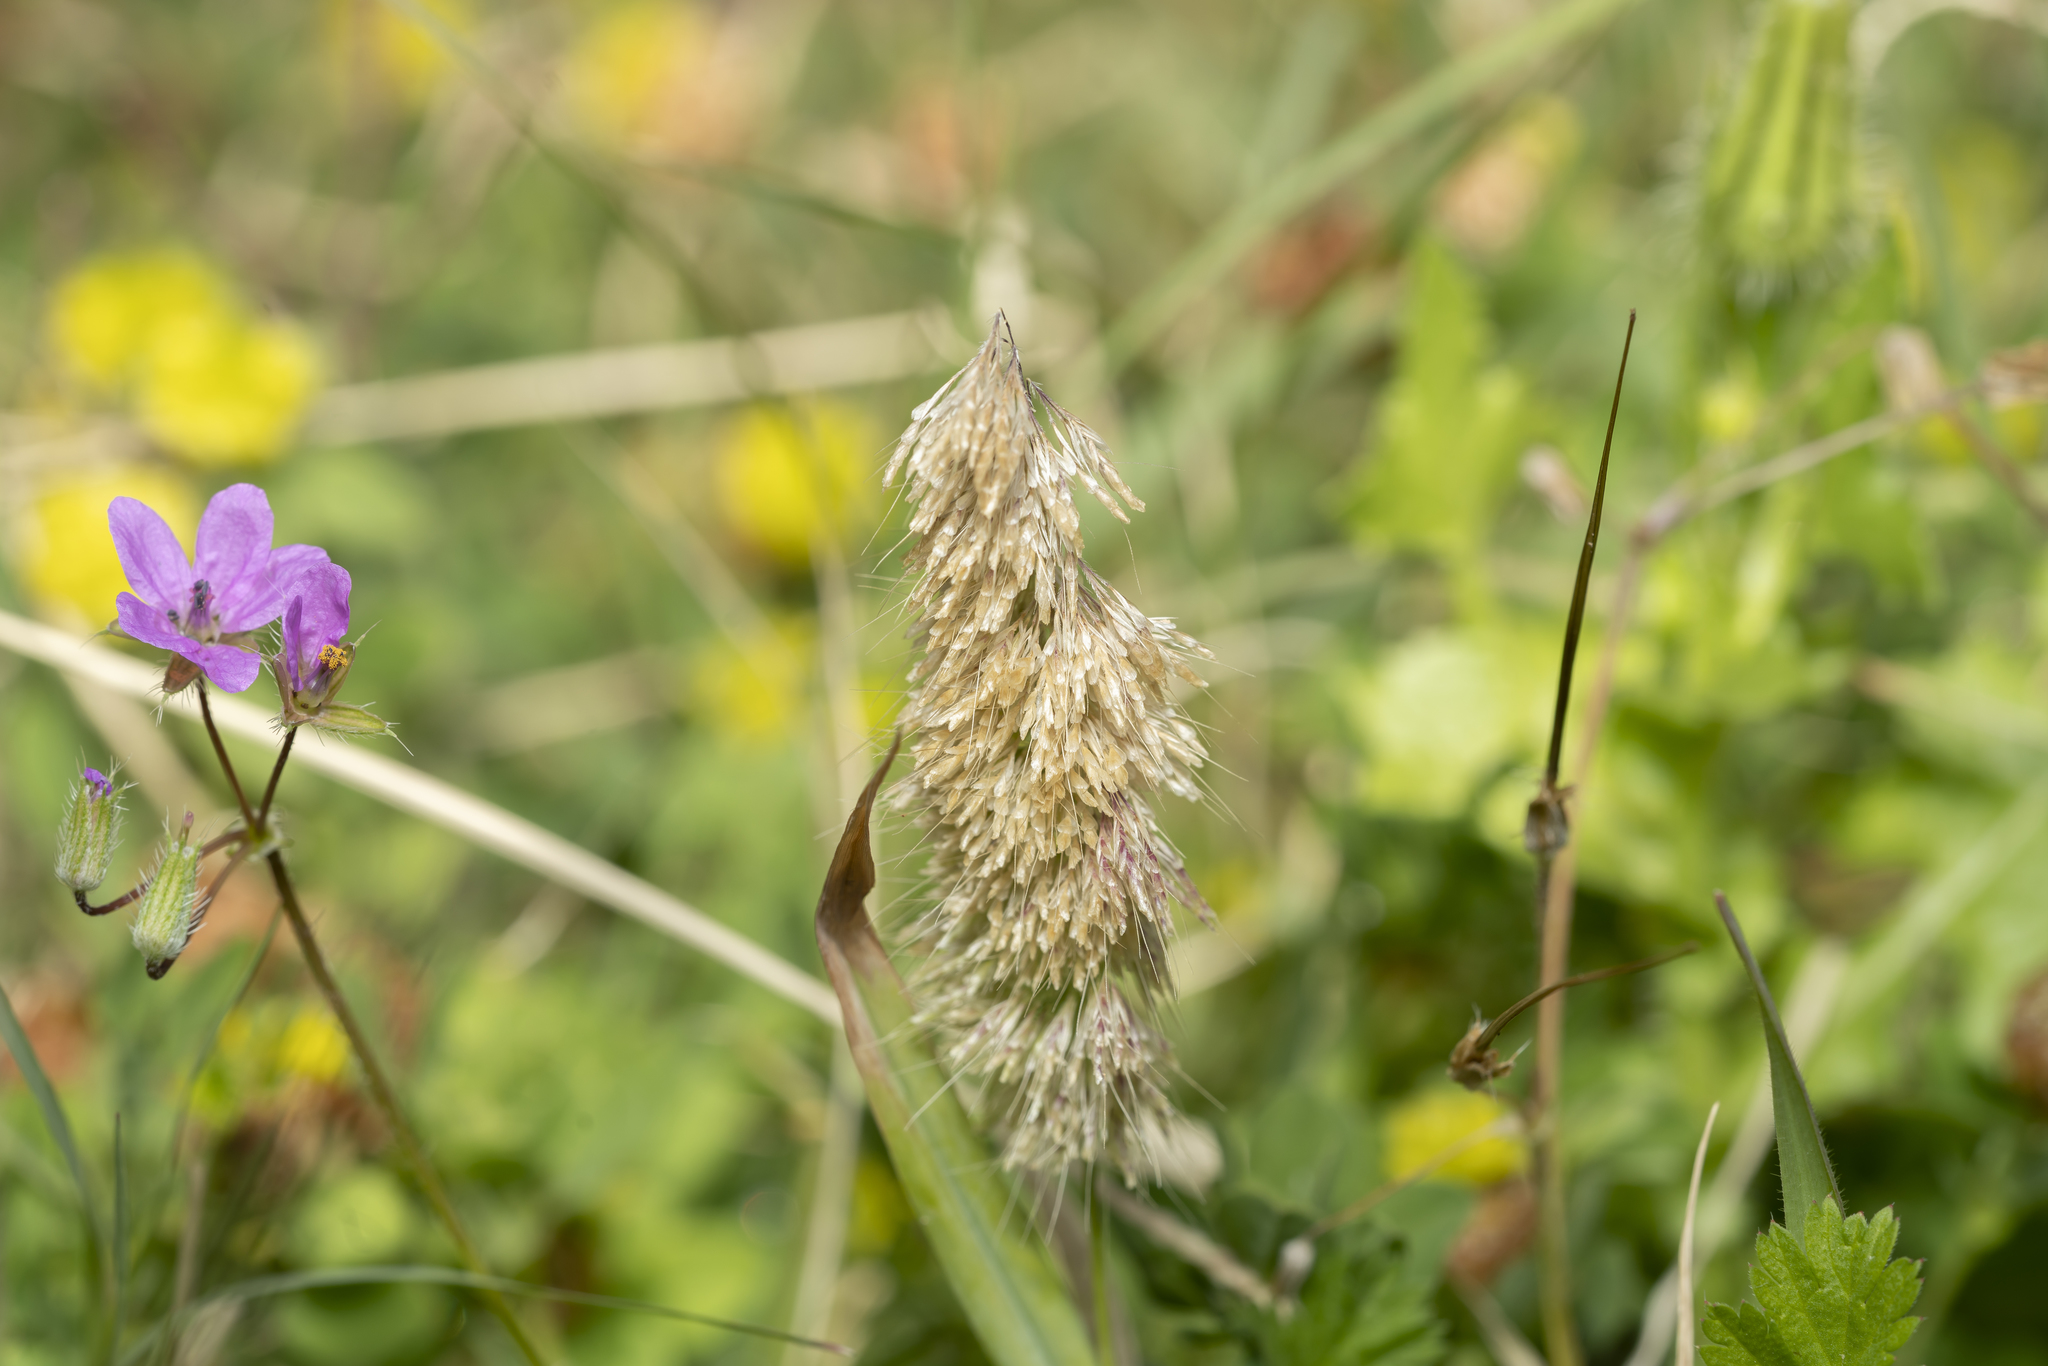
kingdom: Plantae
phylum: Tracheophyta
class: Liliopsida
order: Poales
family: Poaceae
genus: Lamarckia
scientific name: Lamarckia aurea
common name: Golden dog's-tail
